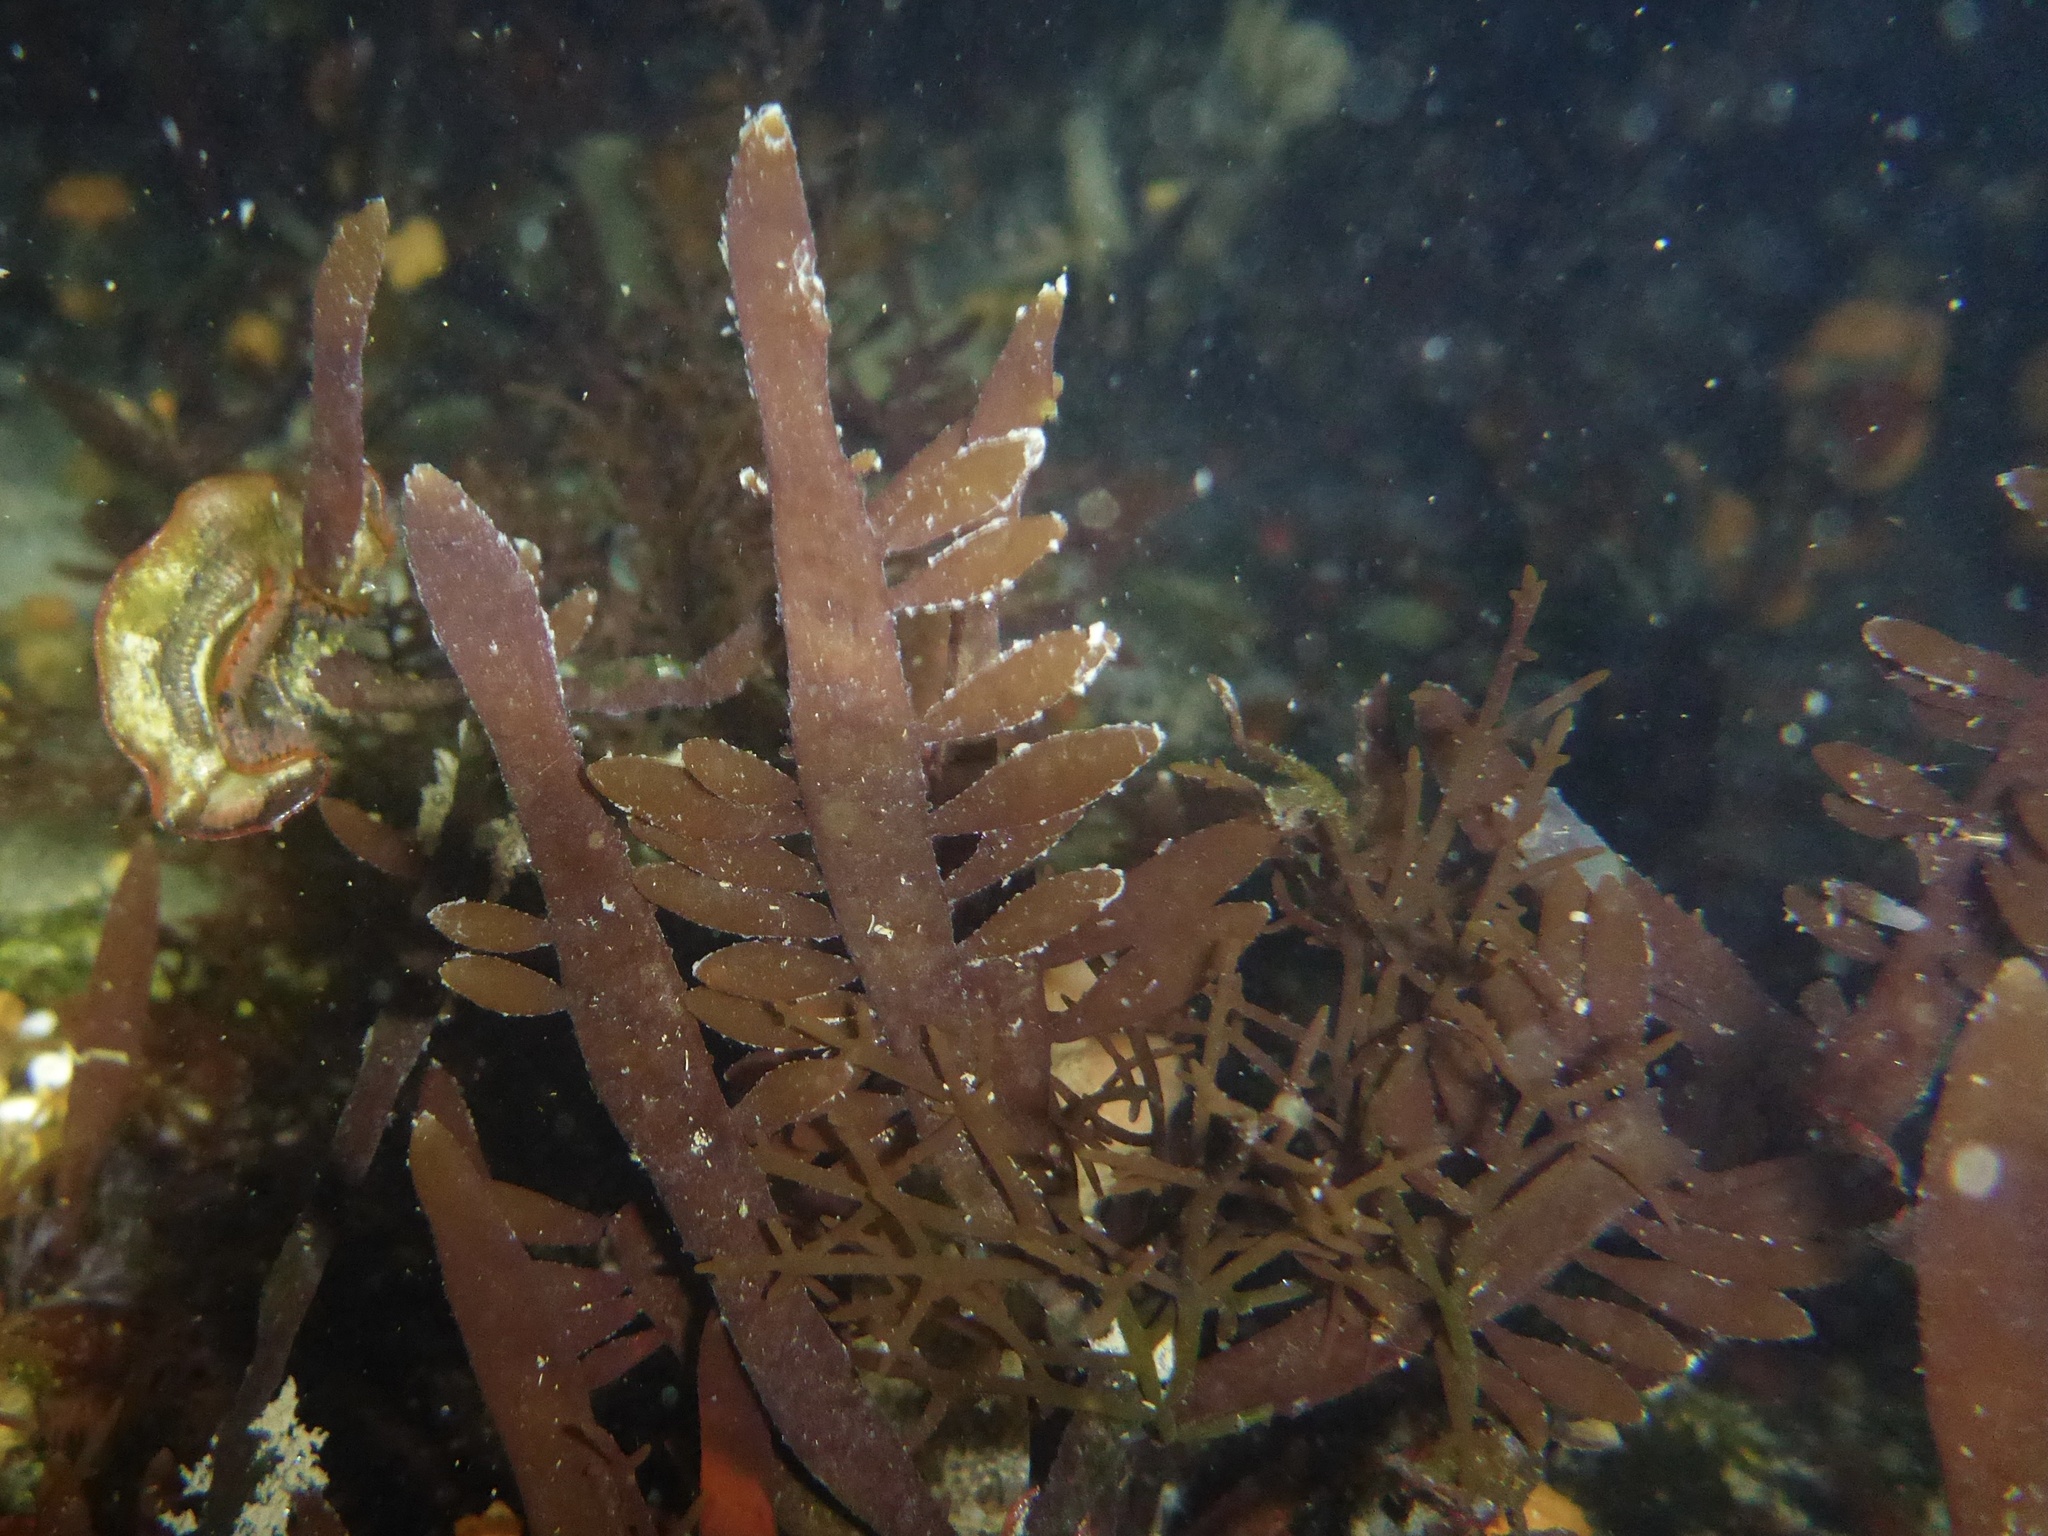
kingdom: Plantae
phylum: Rhodophyta
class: Florideophyceae
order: Halymeniales
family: Halymeniaceae
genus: Grateloupia
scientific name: Grateloupia Prionitis lanceolata
